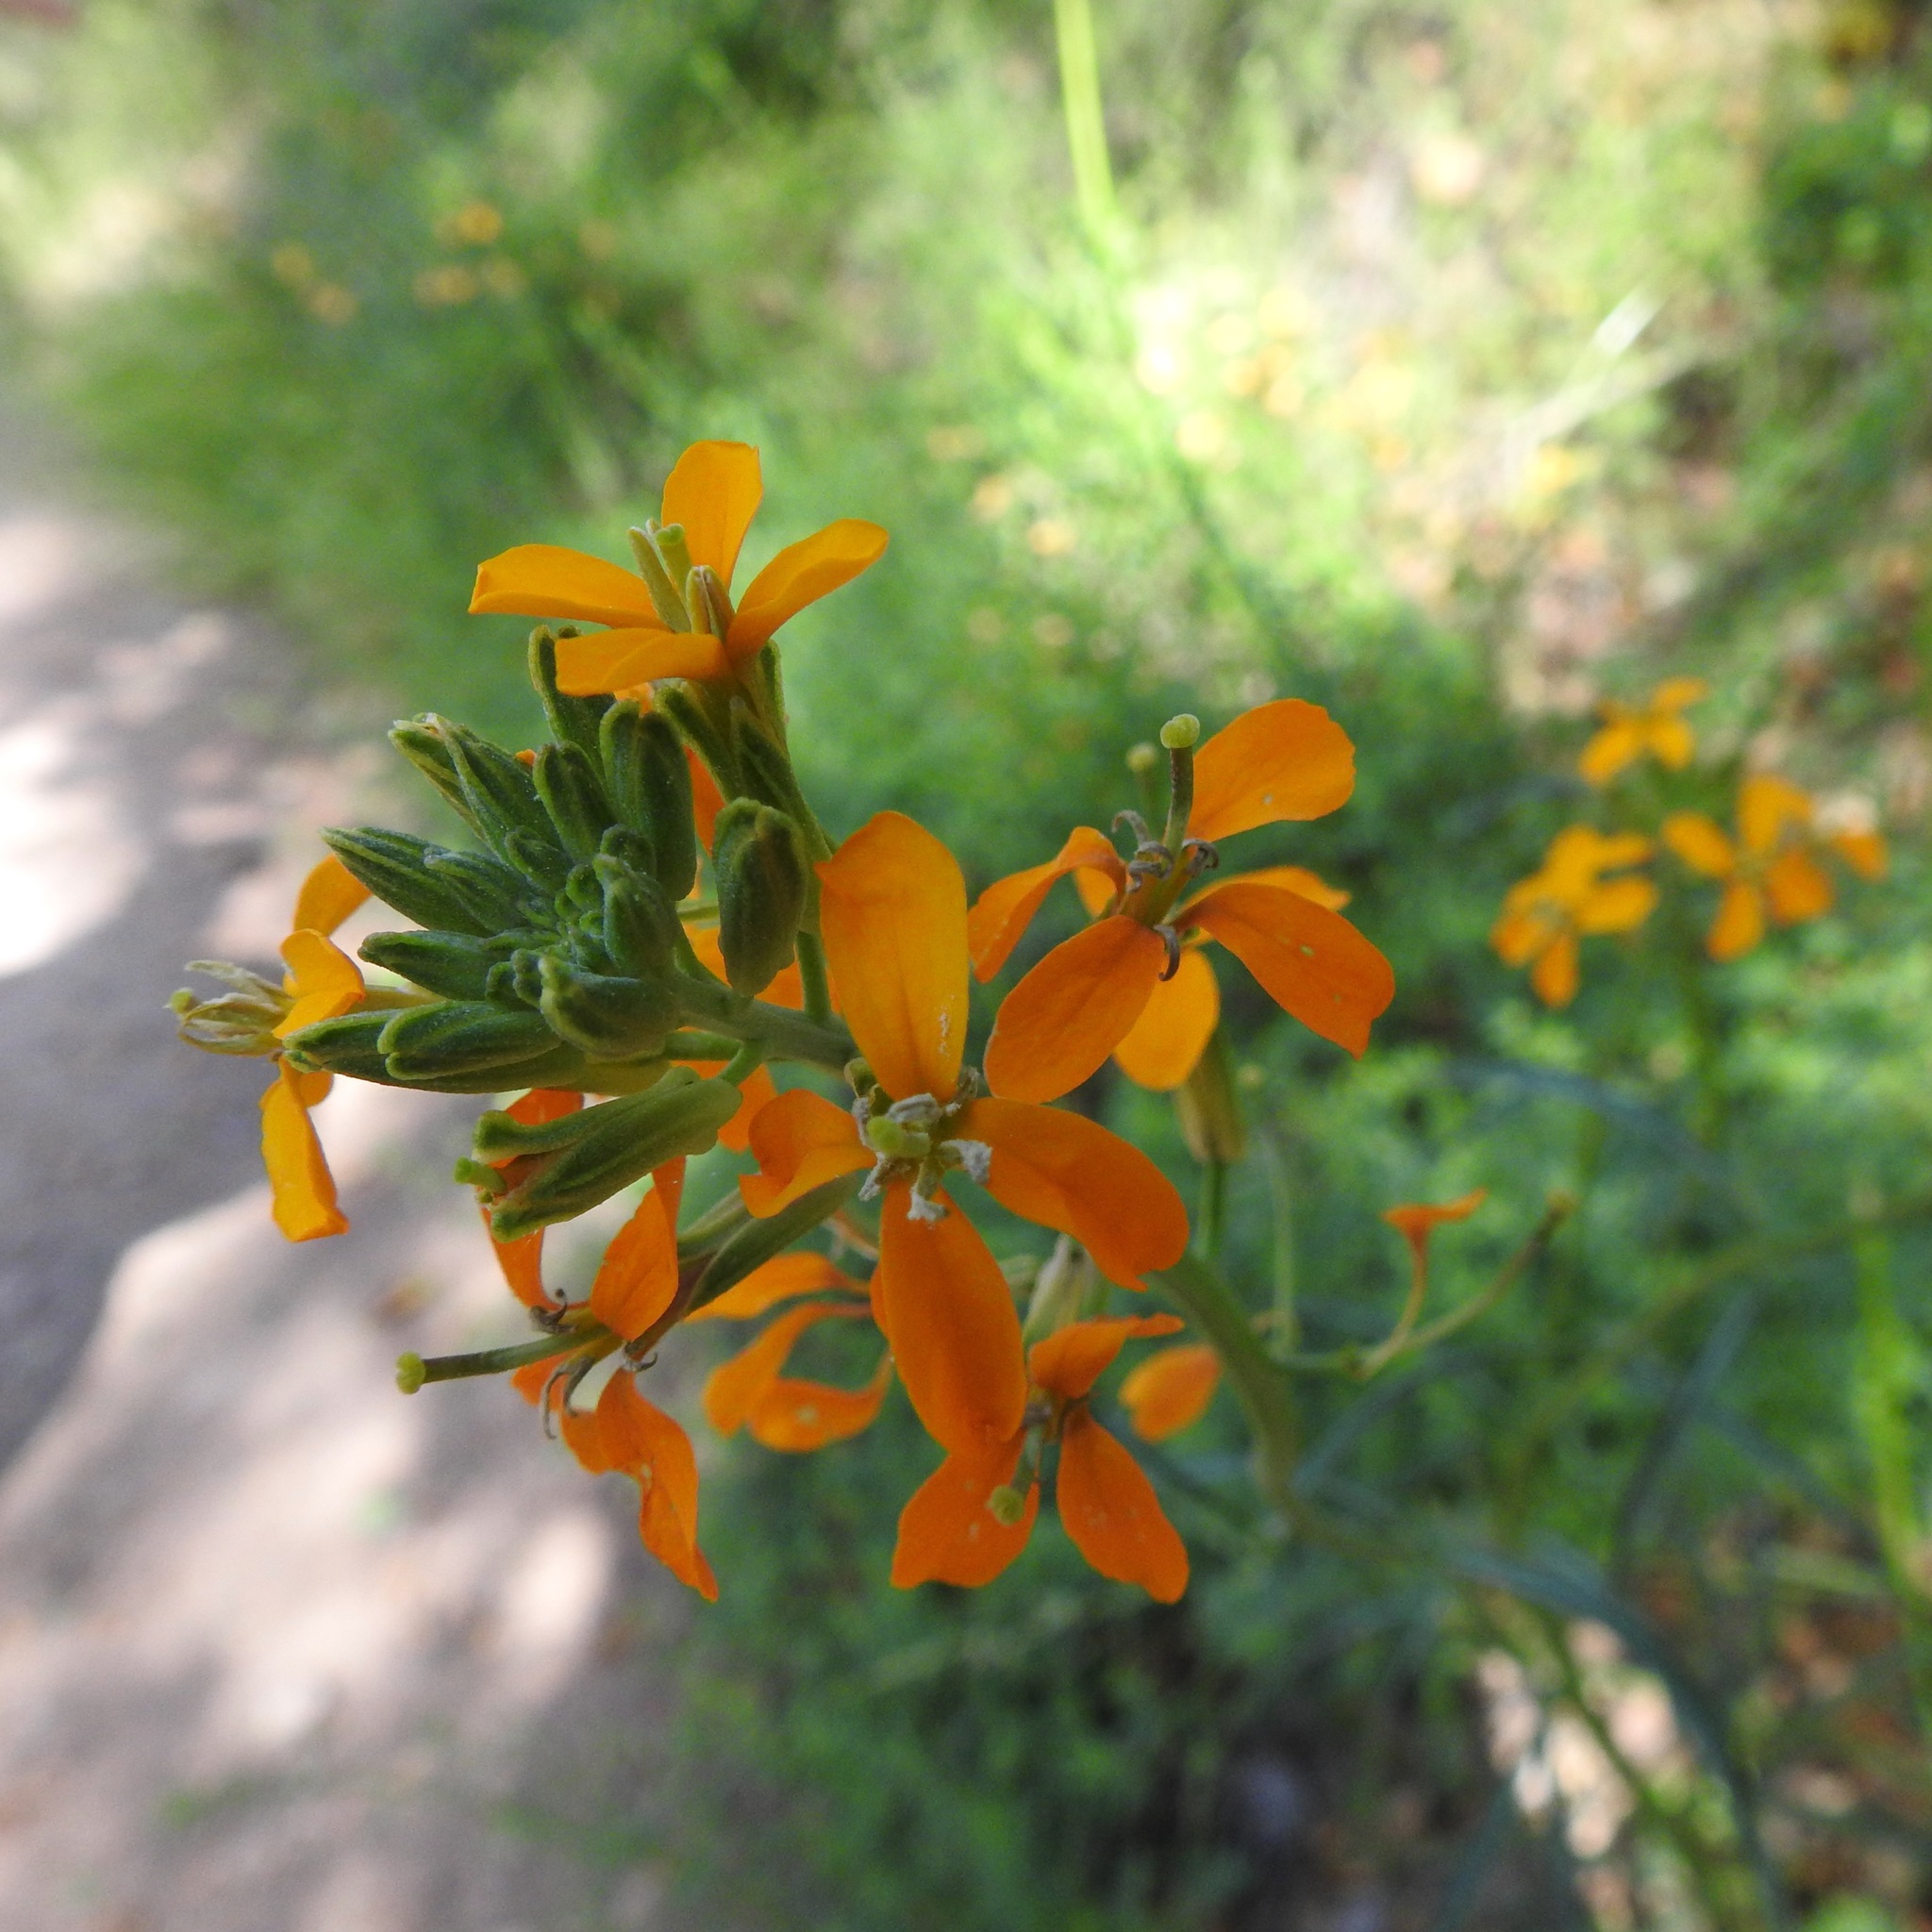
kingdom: Plantae
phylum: Tracheophyta
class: Magnoliopsida
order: Brassicales
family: Brassicaceae
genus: Erysimum
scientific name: Erysimum capitatum
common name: Western wallflower
